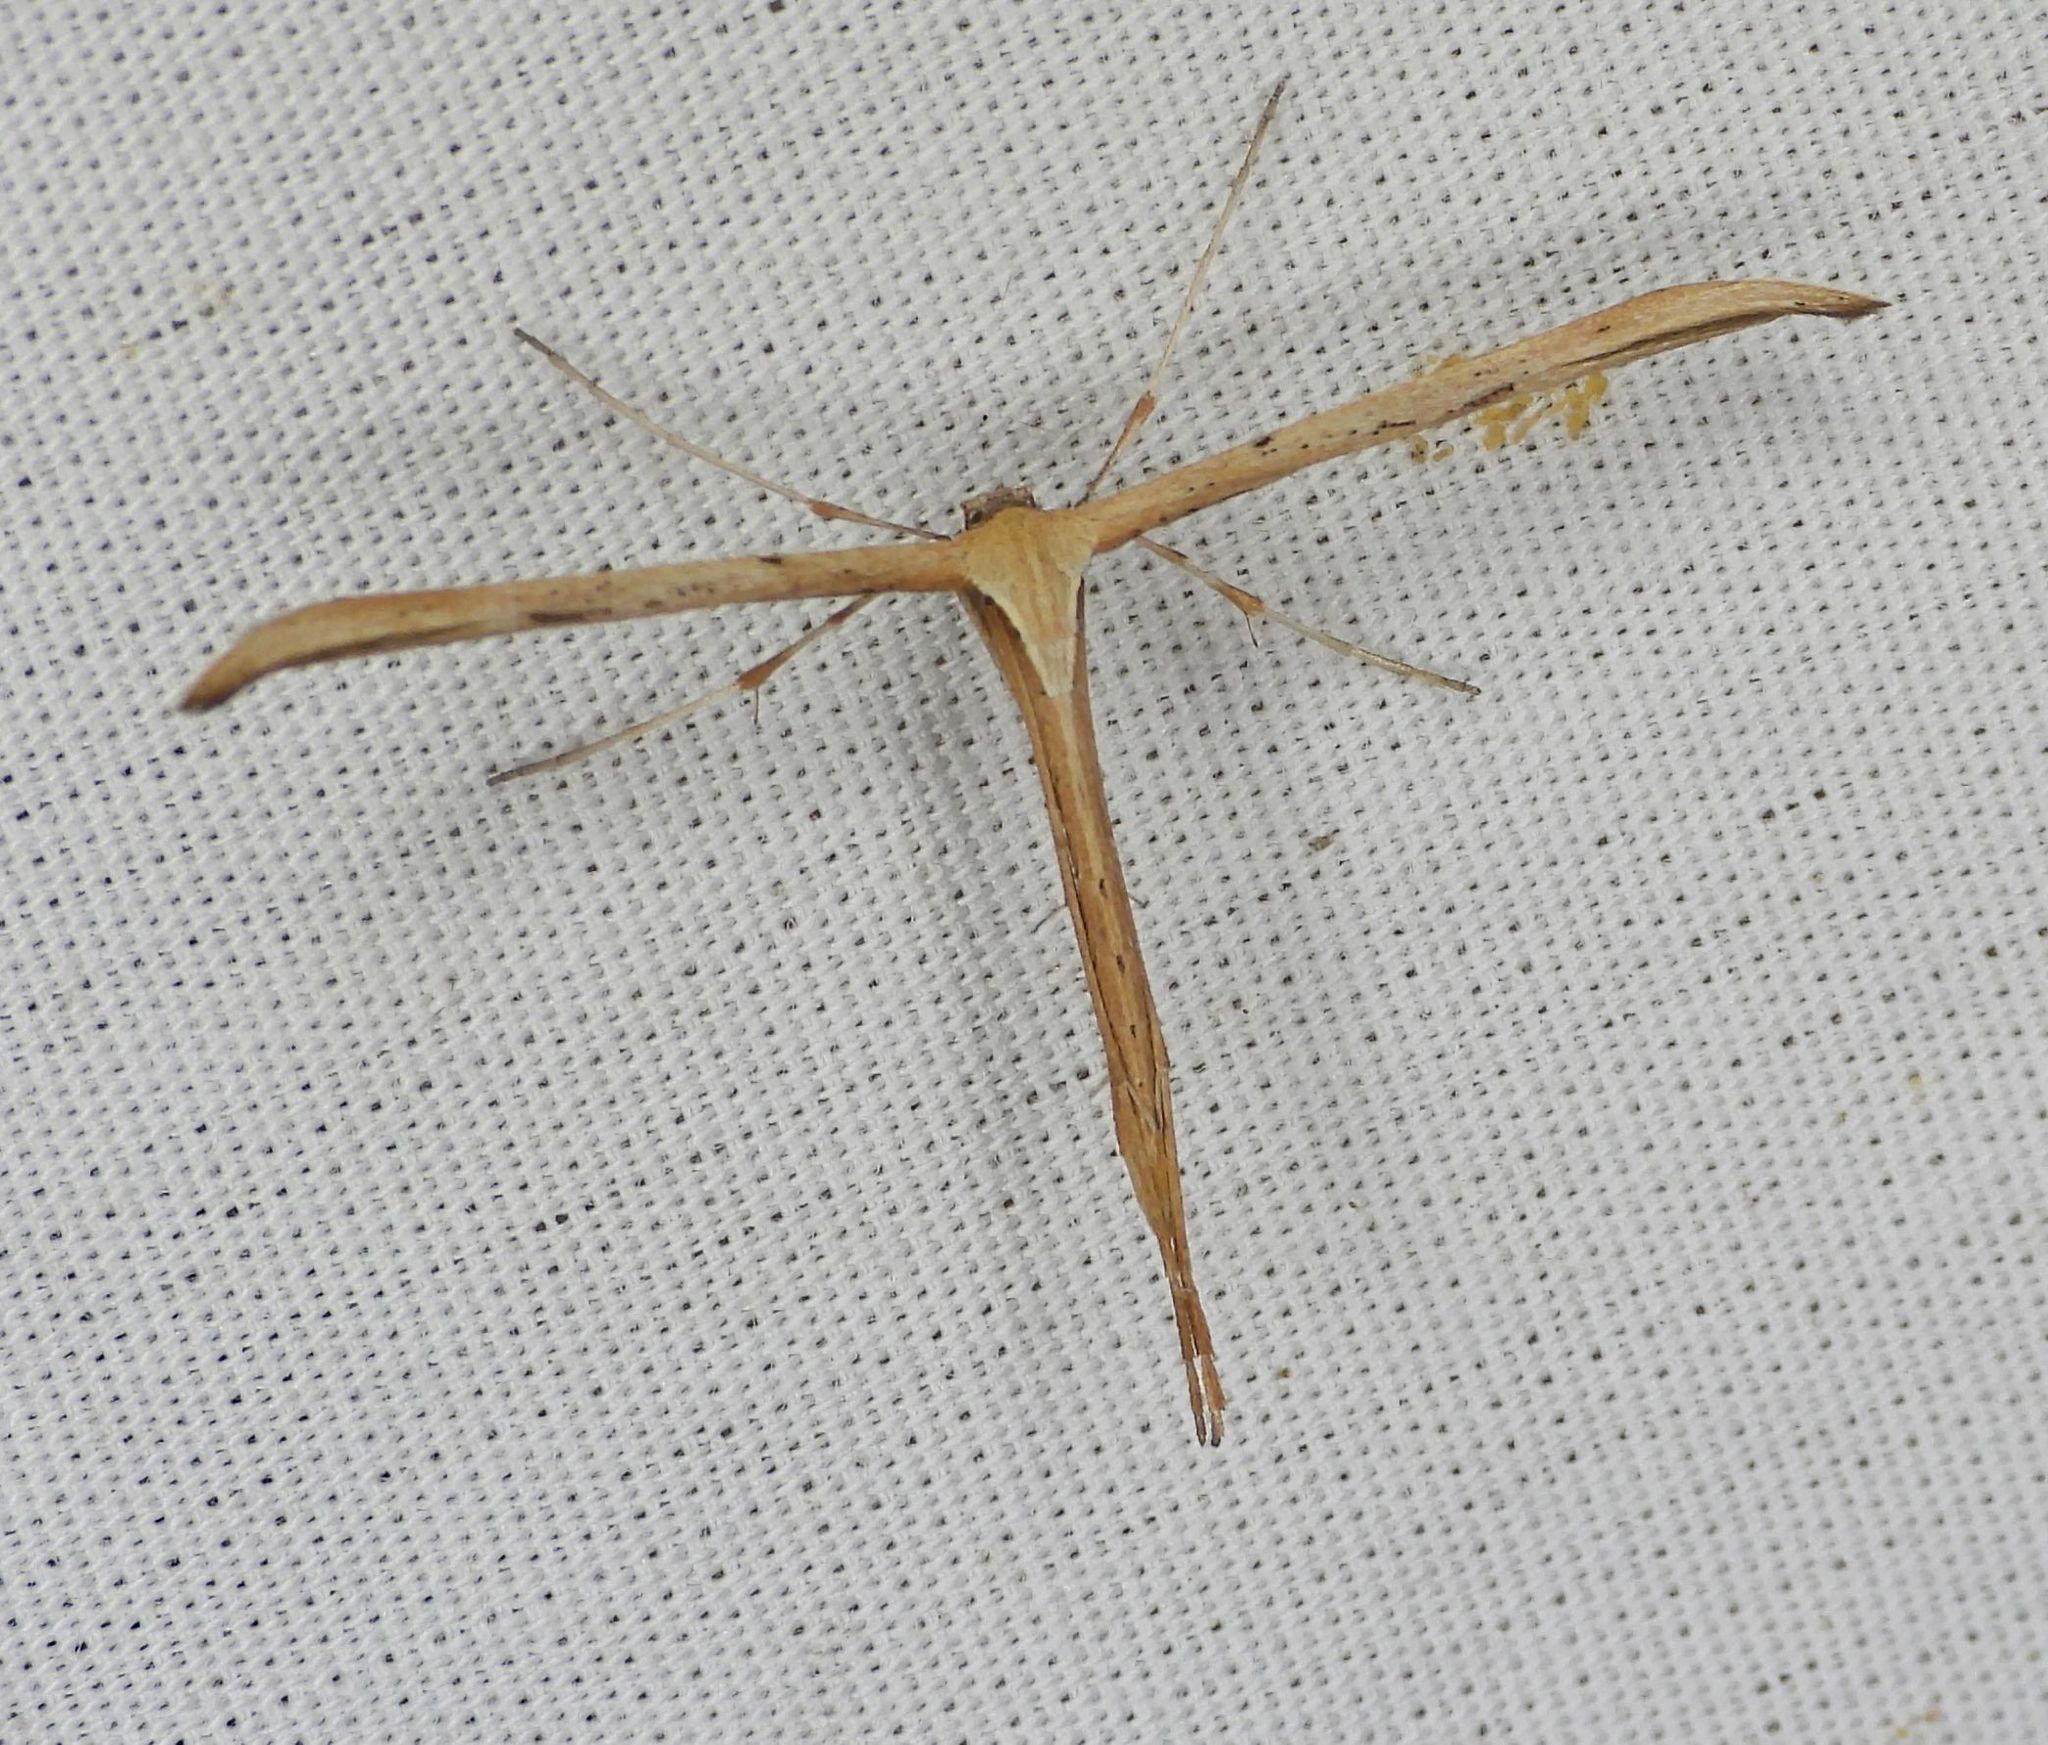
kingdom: Animalia
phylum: Arthropoda
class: Insecta
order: Lepidoptera
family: Pterophoridae
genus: Emmelina
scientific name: Emmelina monodactyla
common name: Common plume
